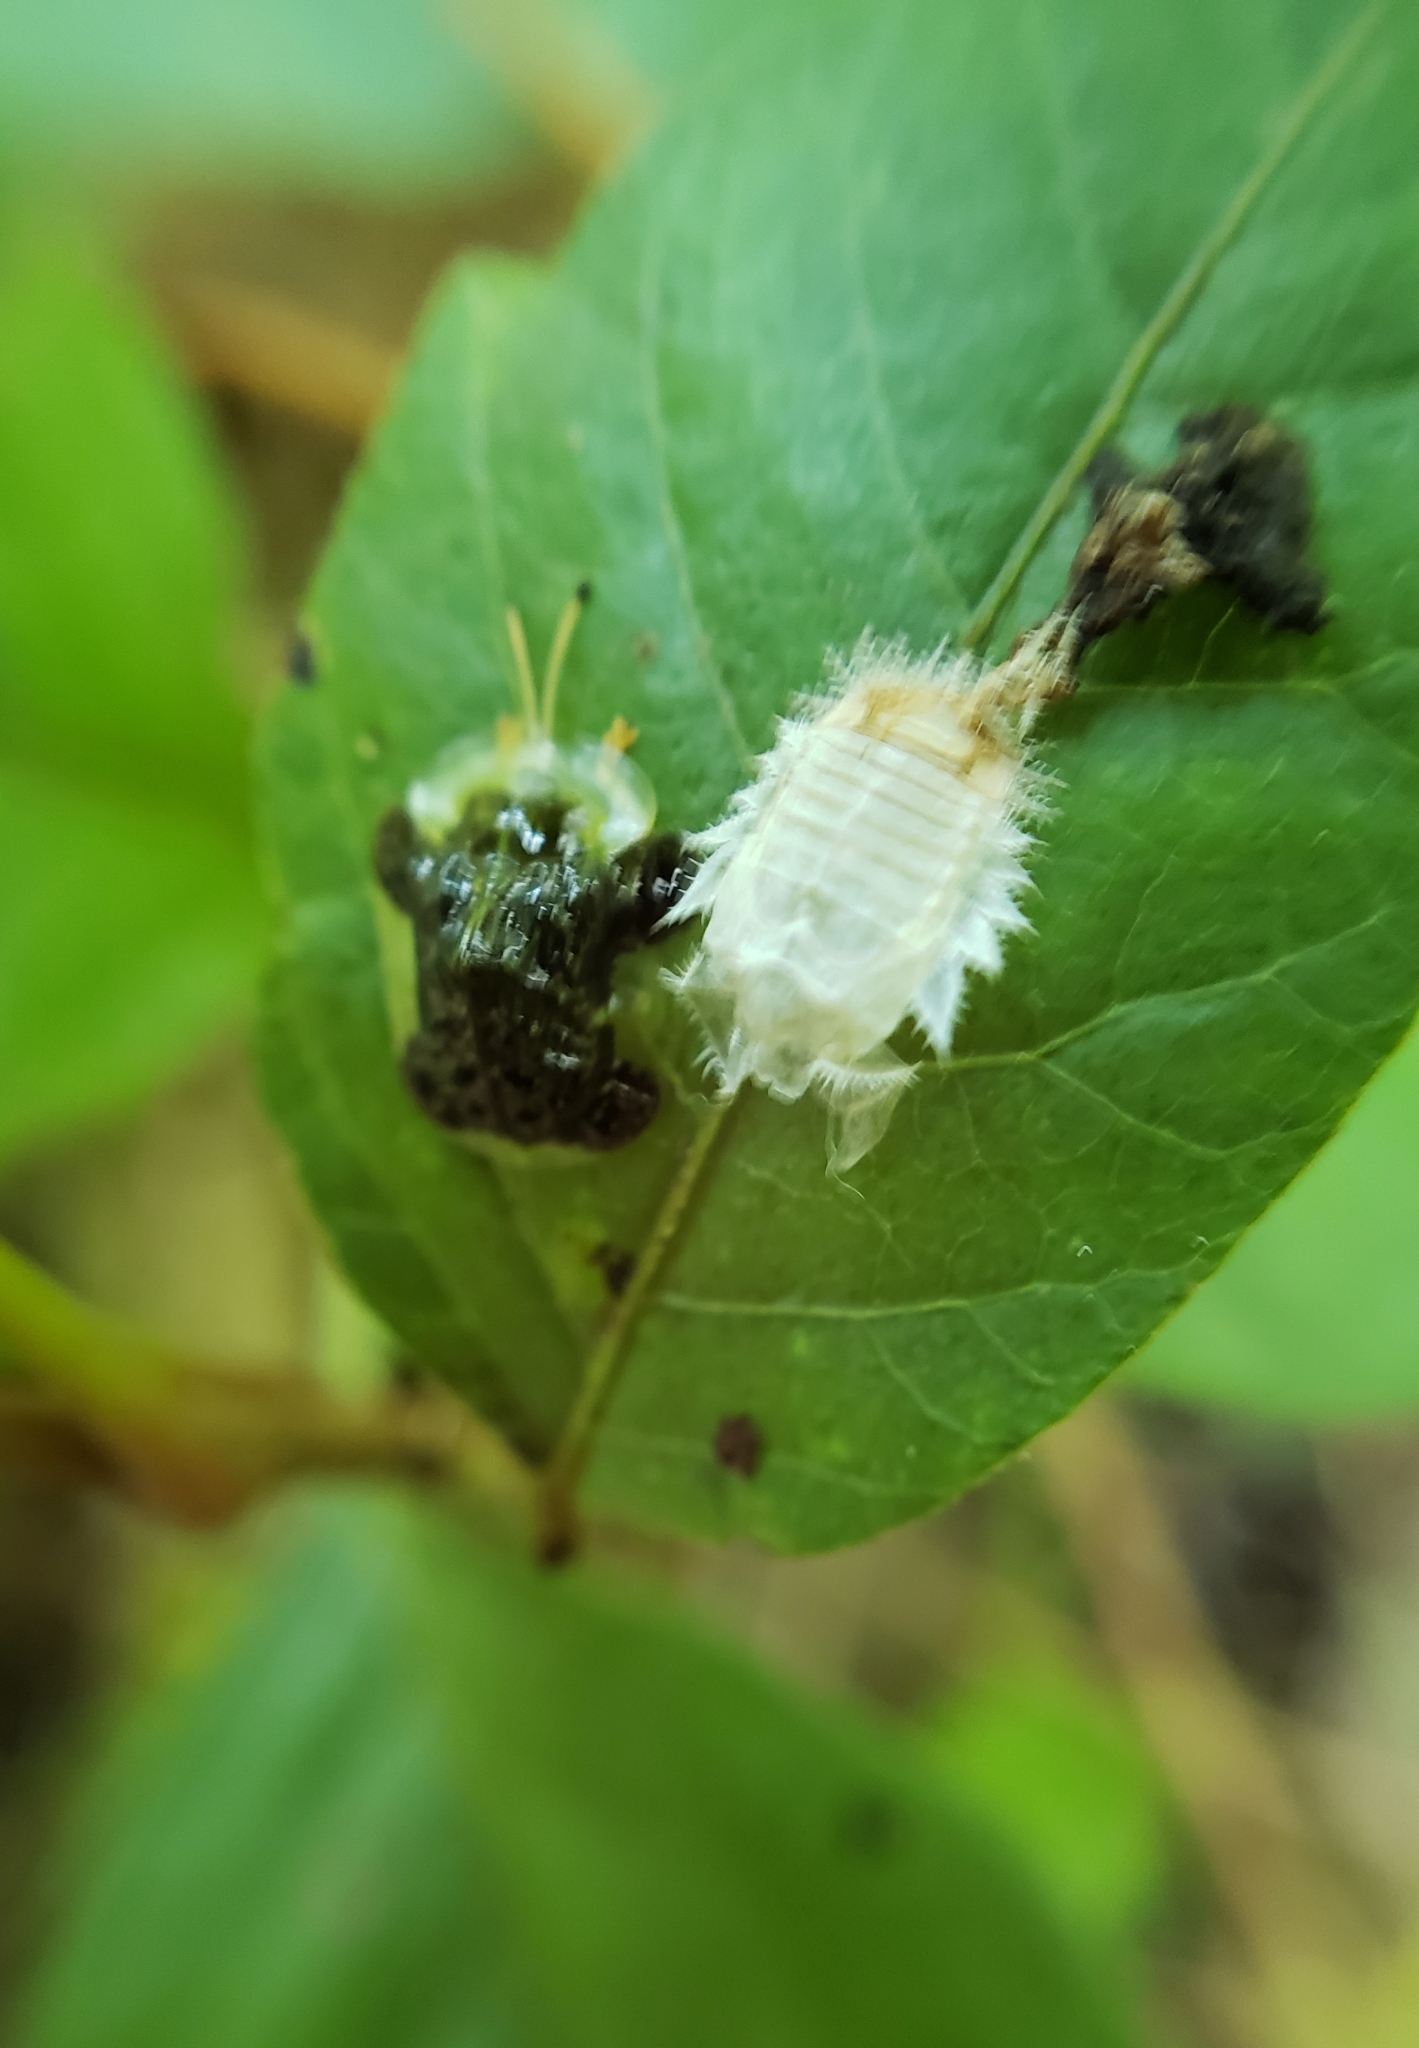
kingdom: Animalia
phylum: Arthropoda
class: Insecta
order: Coleoptera
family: Chrysomelidae
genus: Helocassis
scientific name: Helocassis clavata
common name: Clavate tortoise beetle
